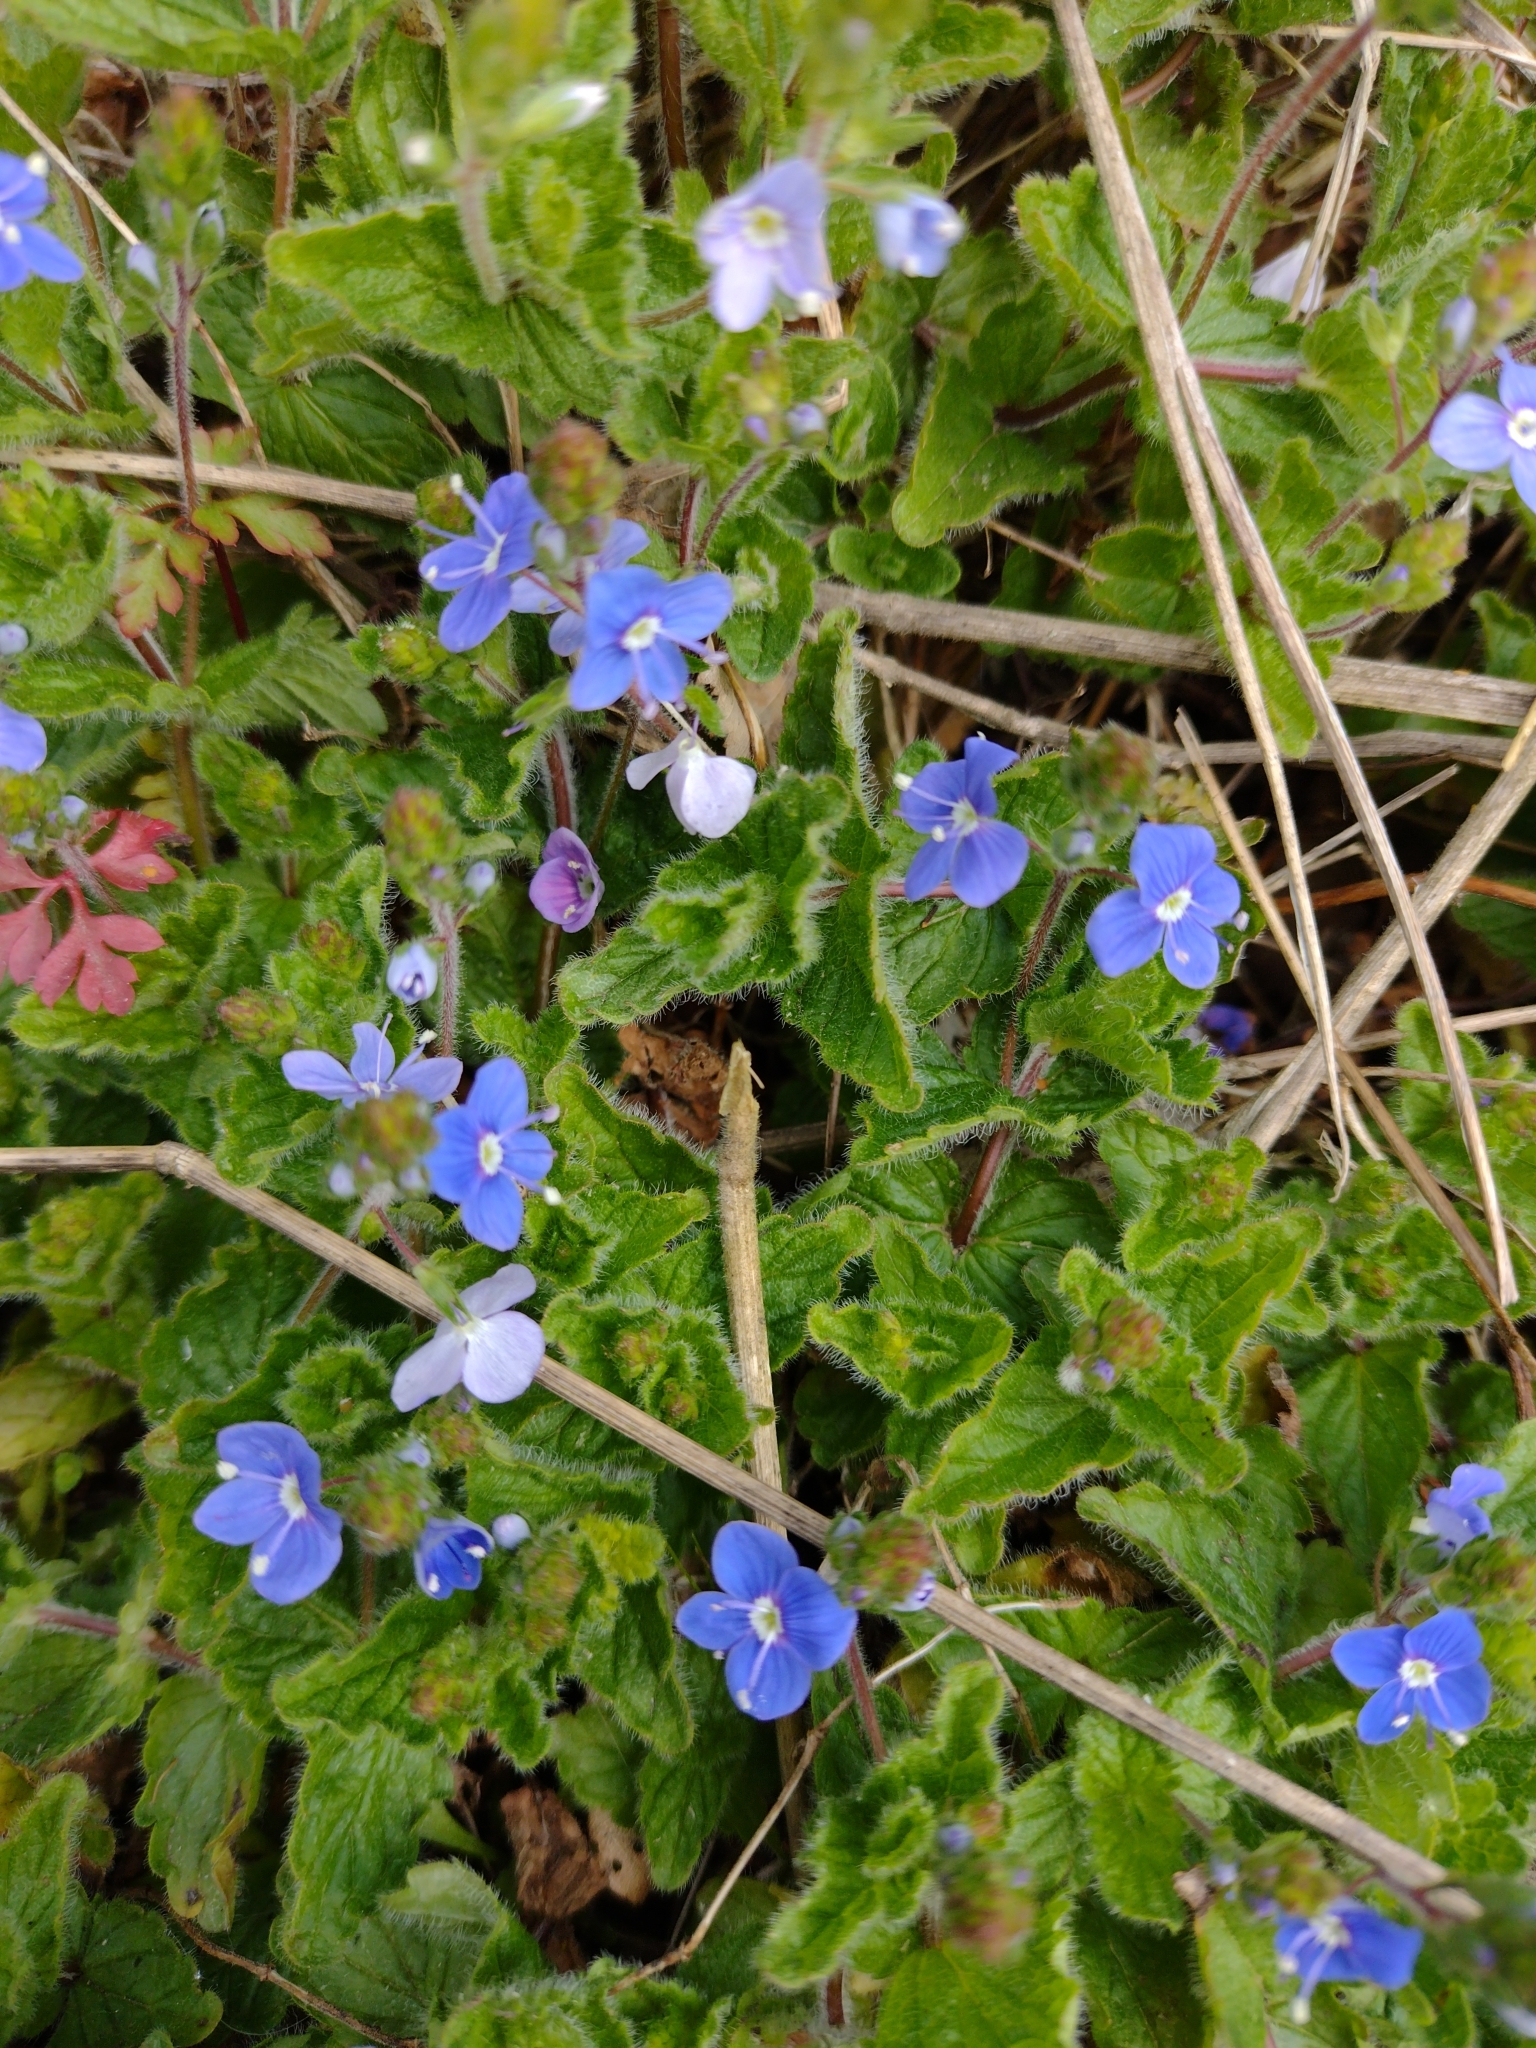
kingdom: Plantae
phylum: Tracheophyta
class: Magnoliopsida
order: Lamiales
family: Plantaginaceae
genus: Veronica
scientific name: Veronica chamaedrys
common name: Germander speedwell
